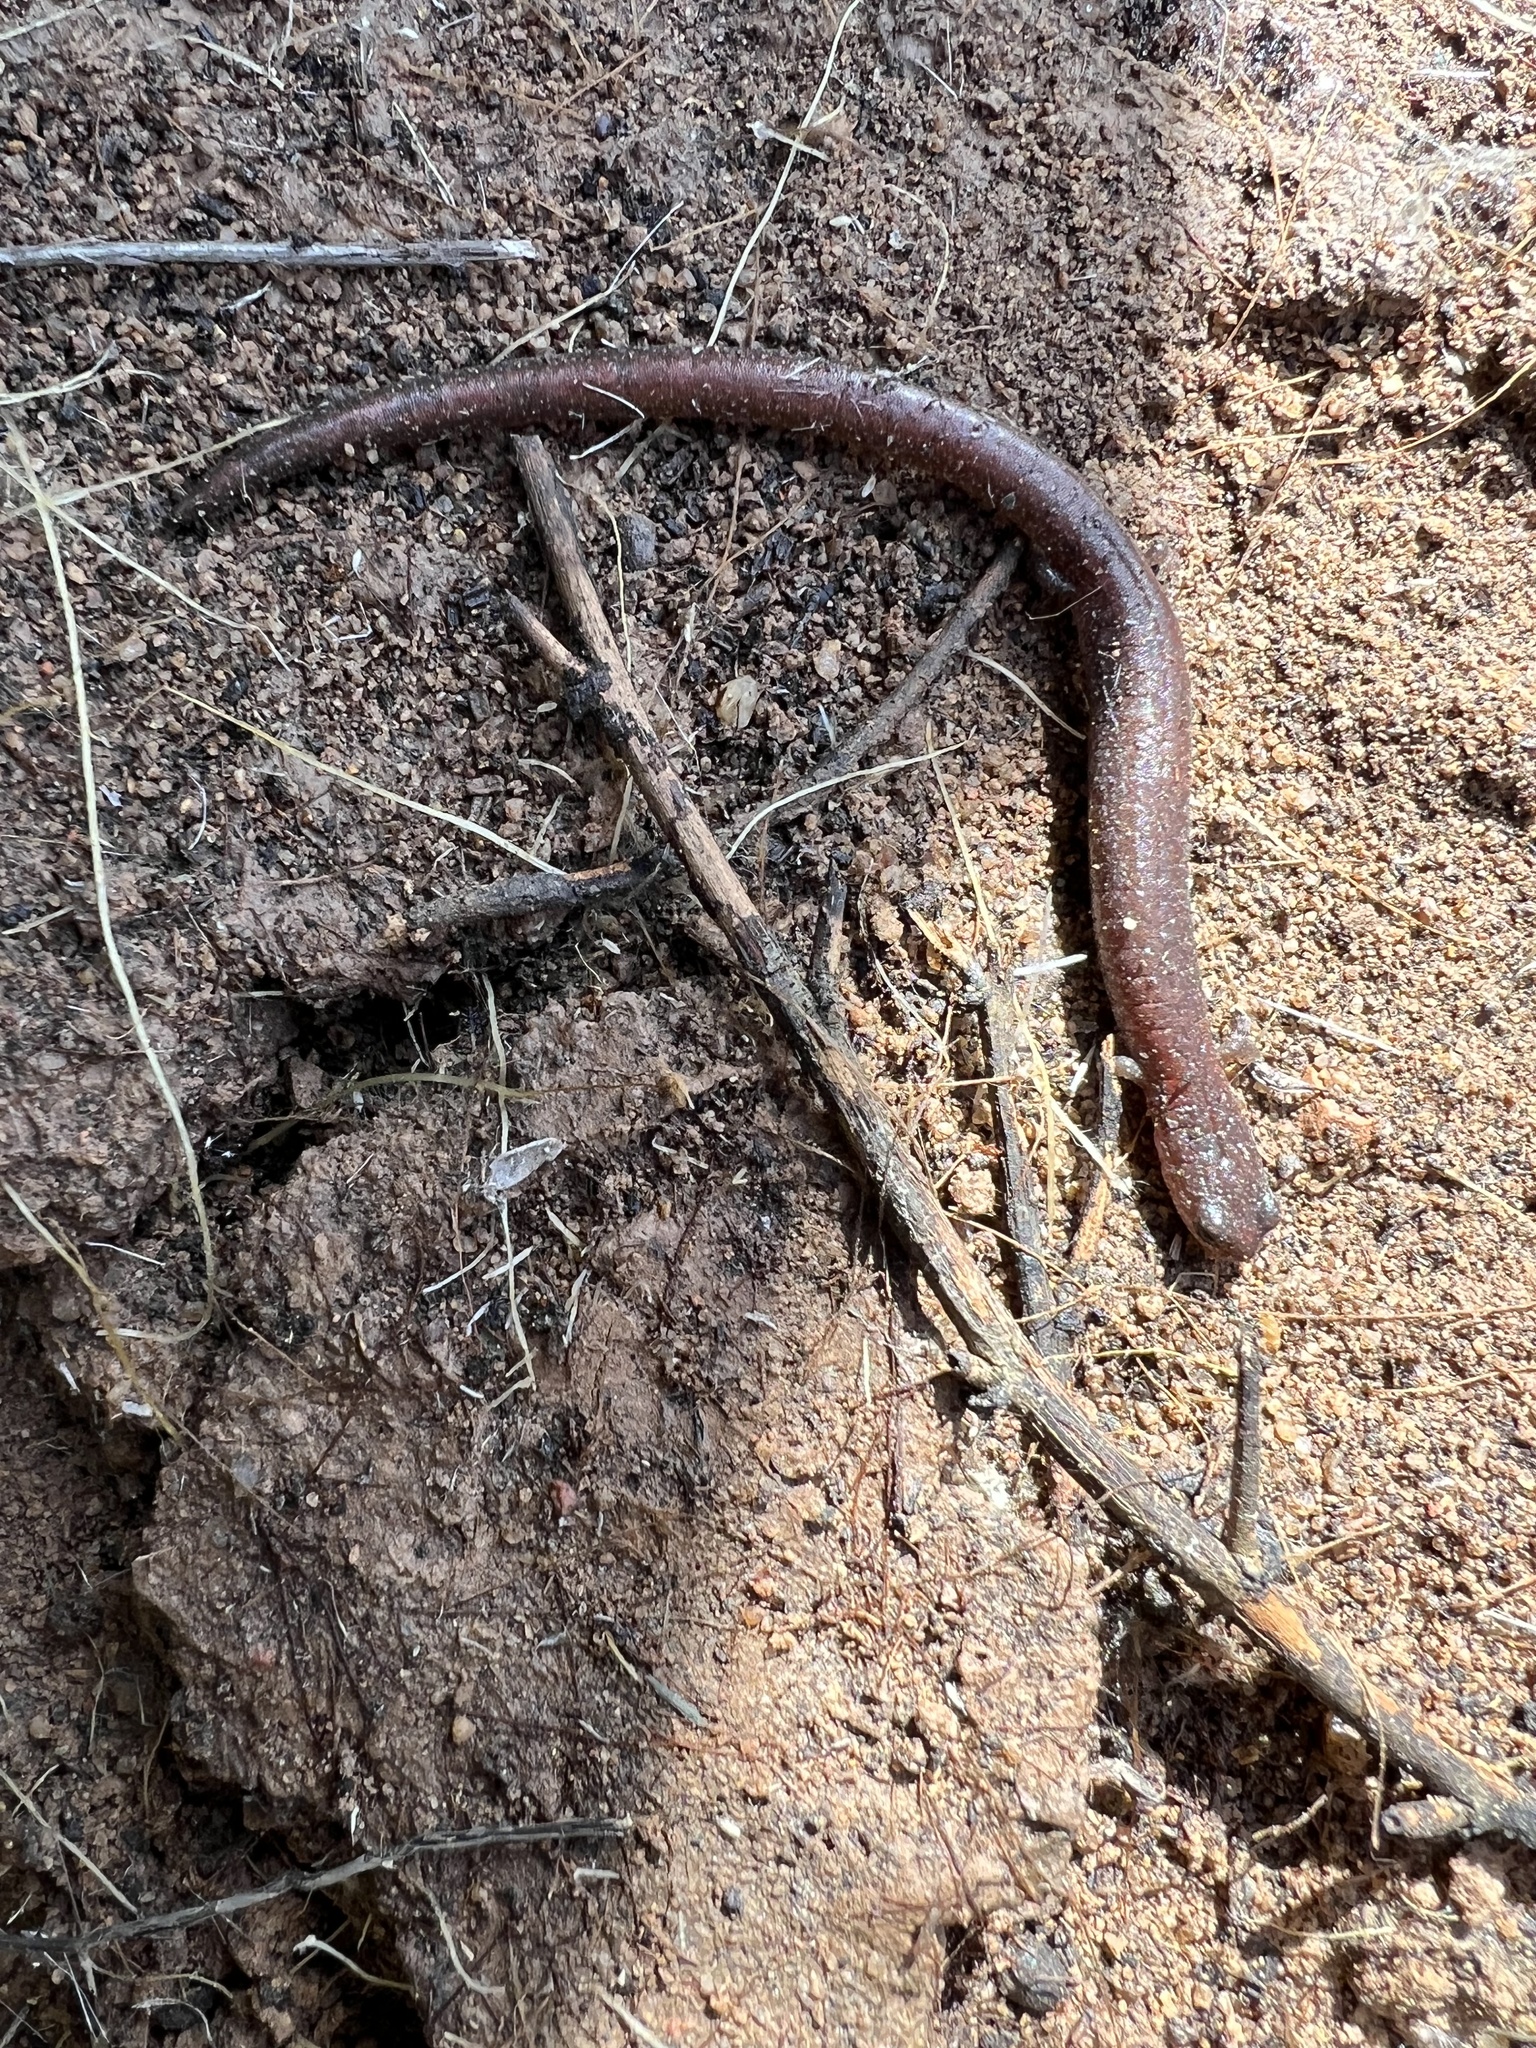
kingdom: Animalia
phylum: Chordata
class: Amphibia
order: Caudata
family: Plethodontidae
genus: Batrachoseps
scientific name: Batrachoseps major
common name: Garden slender salamander
